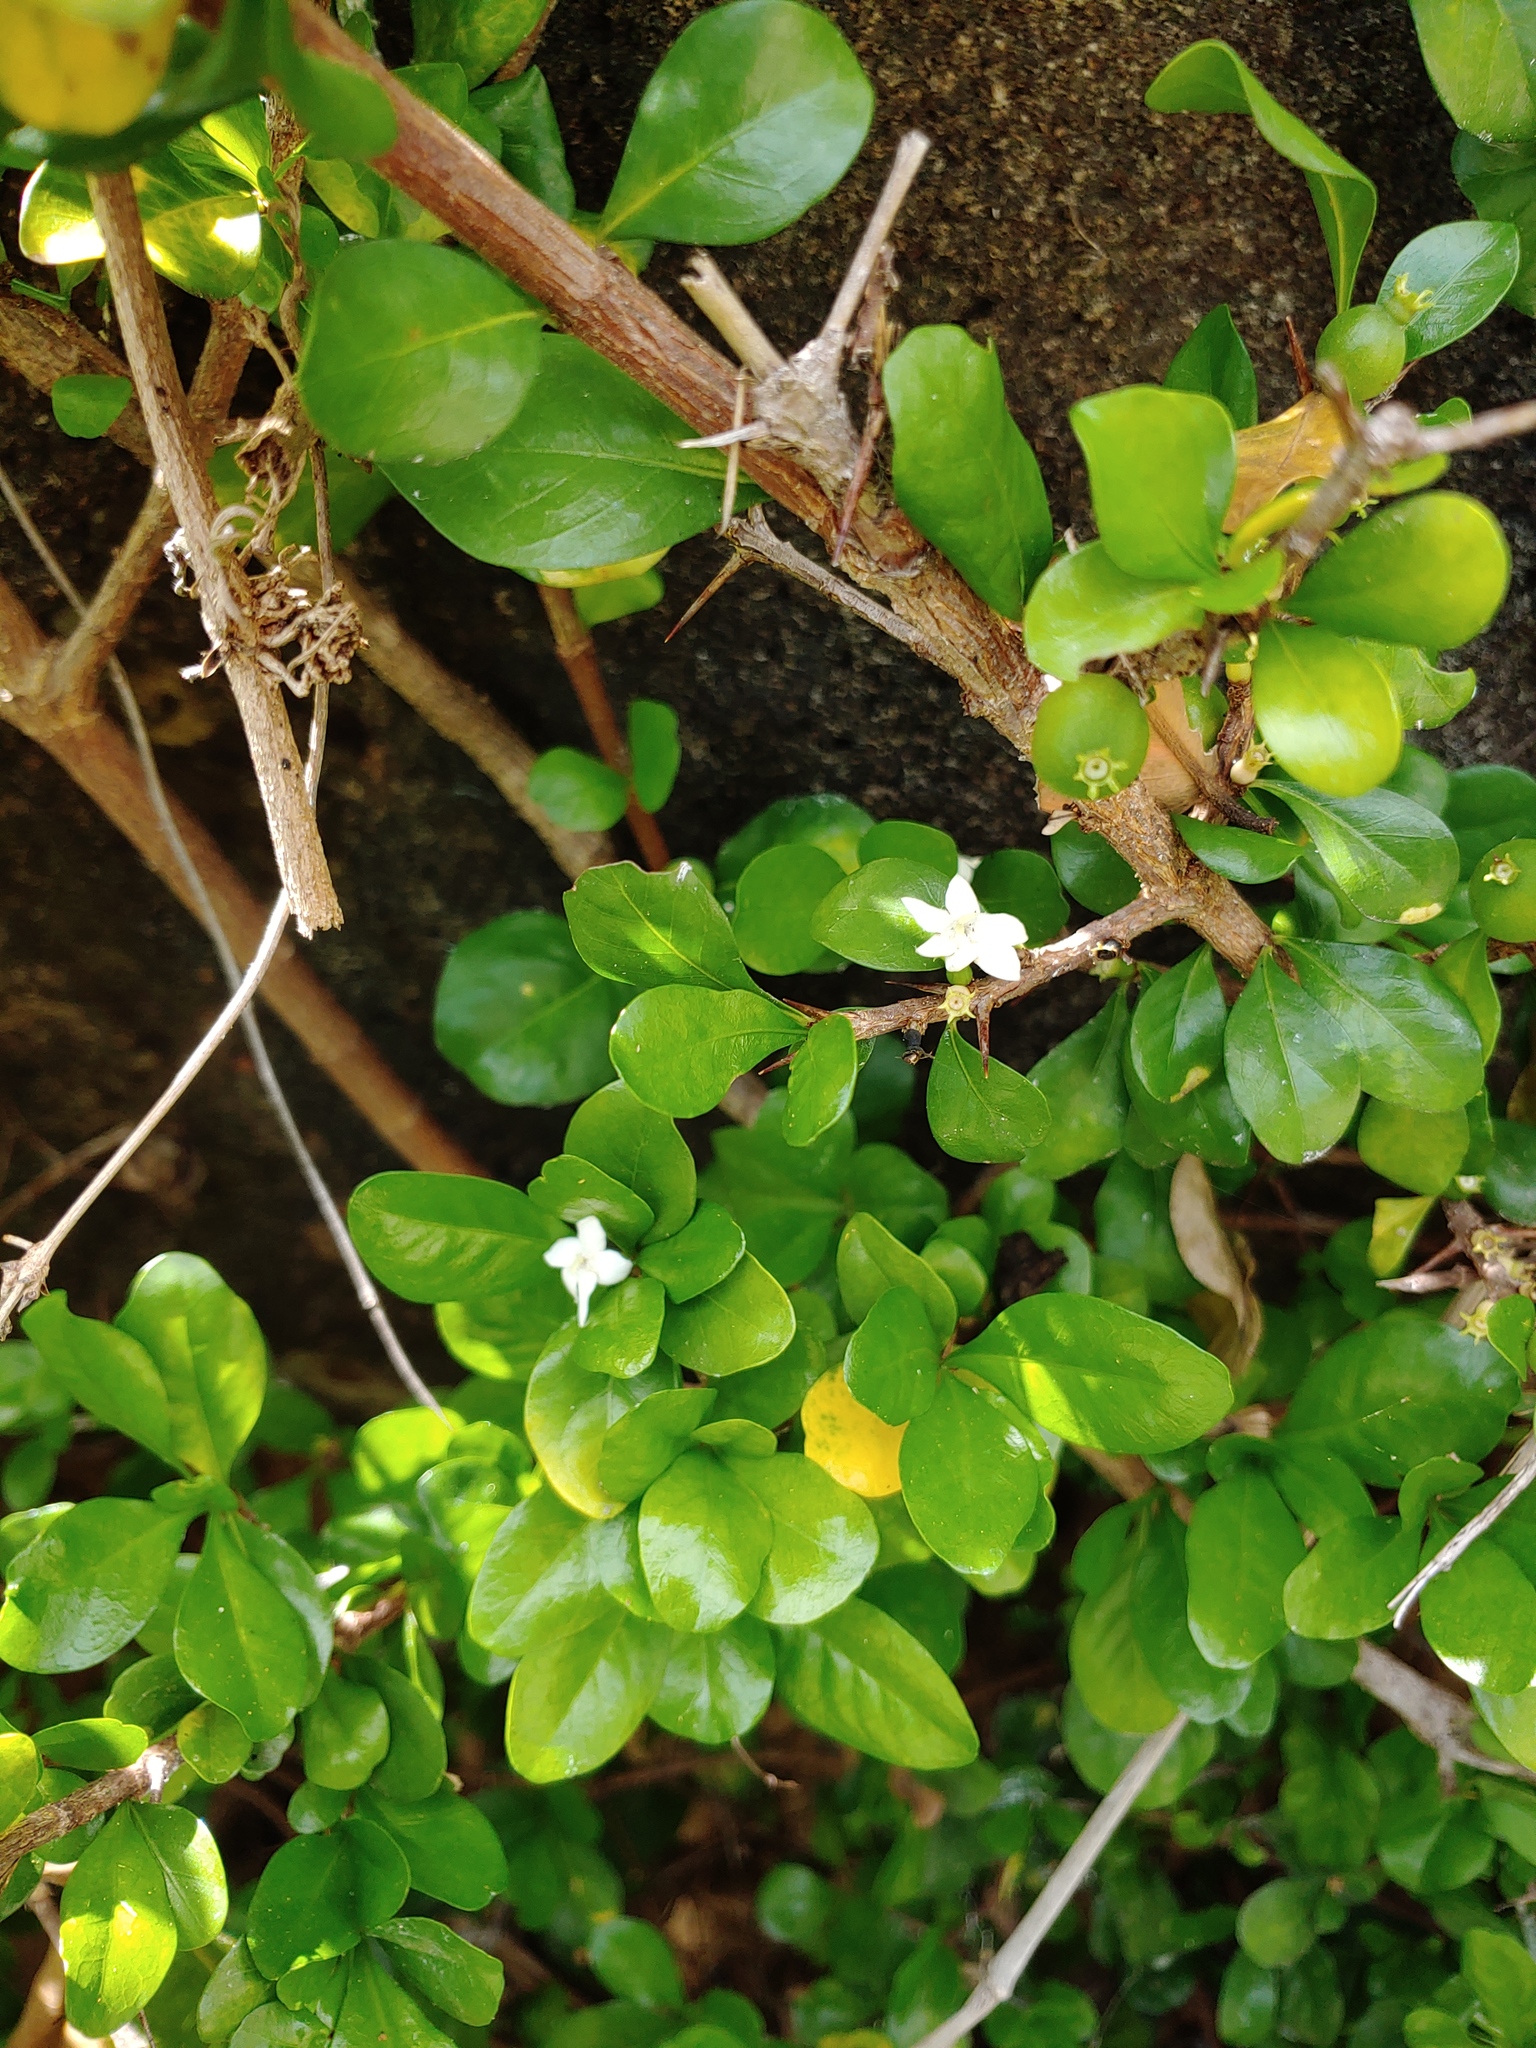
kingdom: Plantae
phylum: Tracheophyta
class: Magnoliopsida
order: Gentianales
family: Rubiaceae
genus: Randia
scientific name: Randia aculeata
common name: Inkberry
